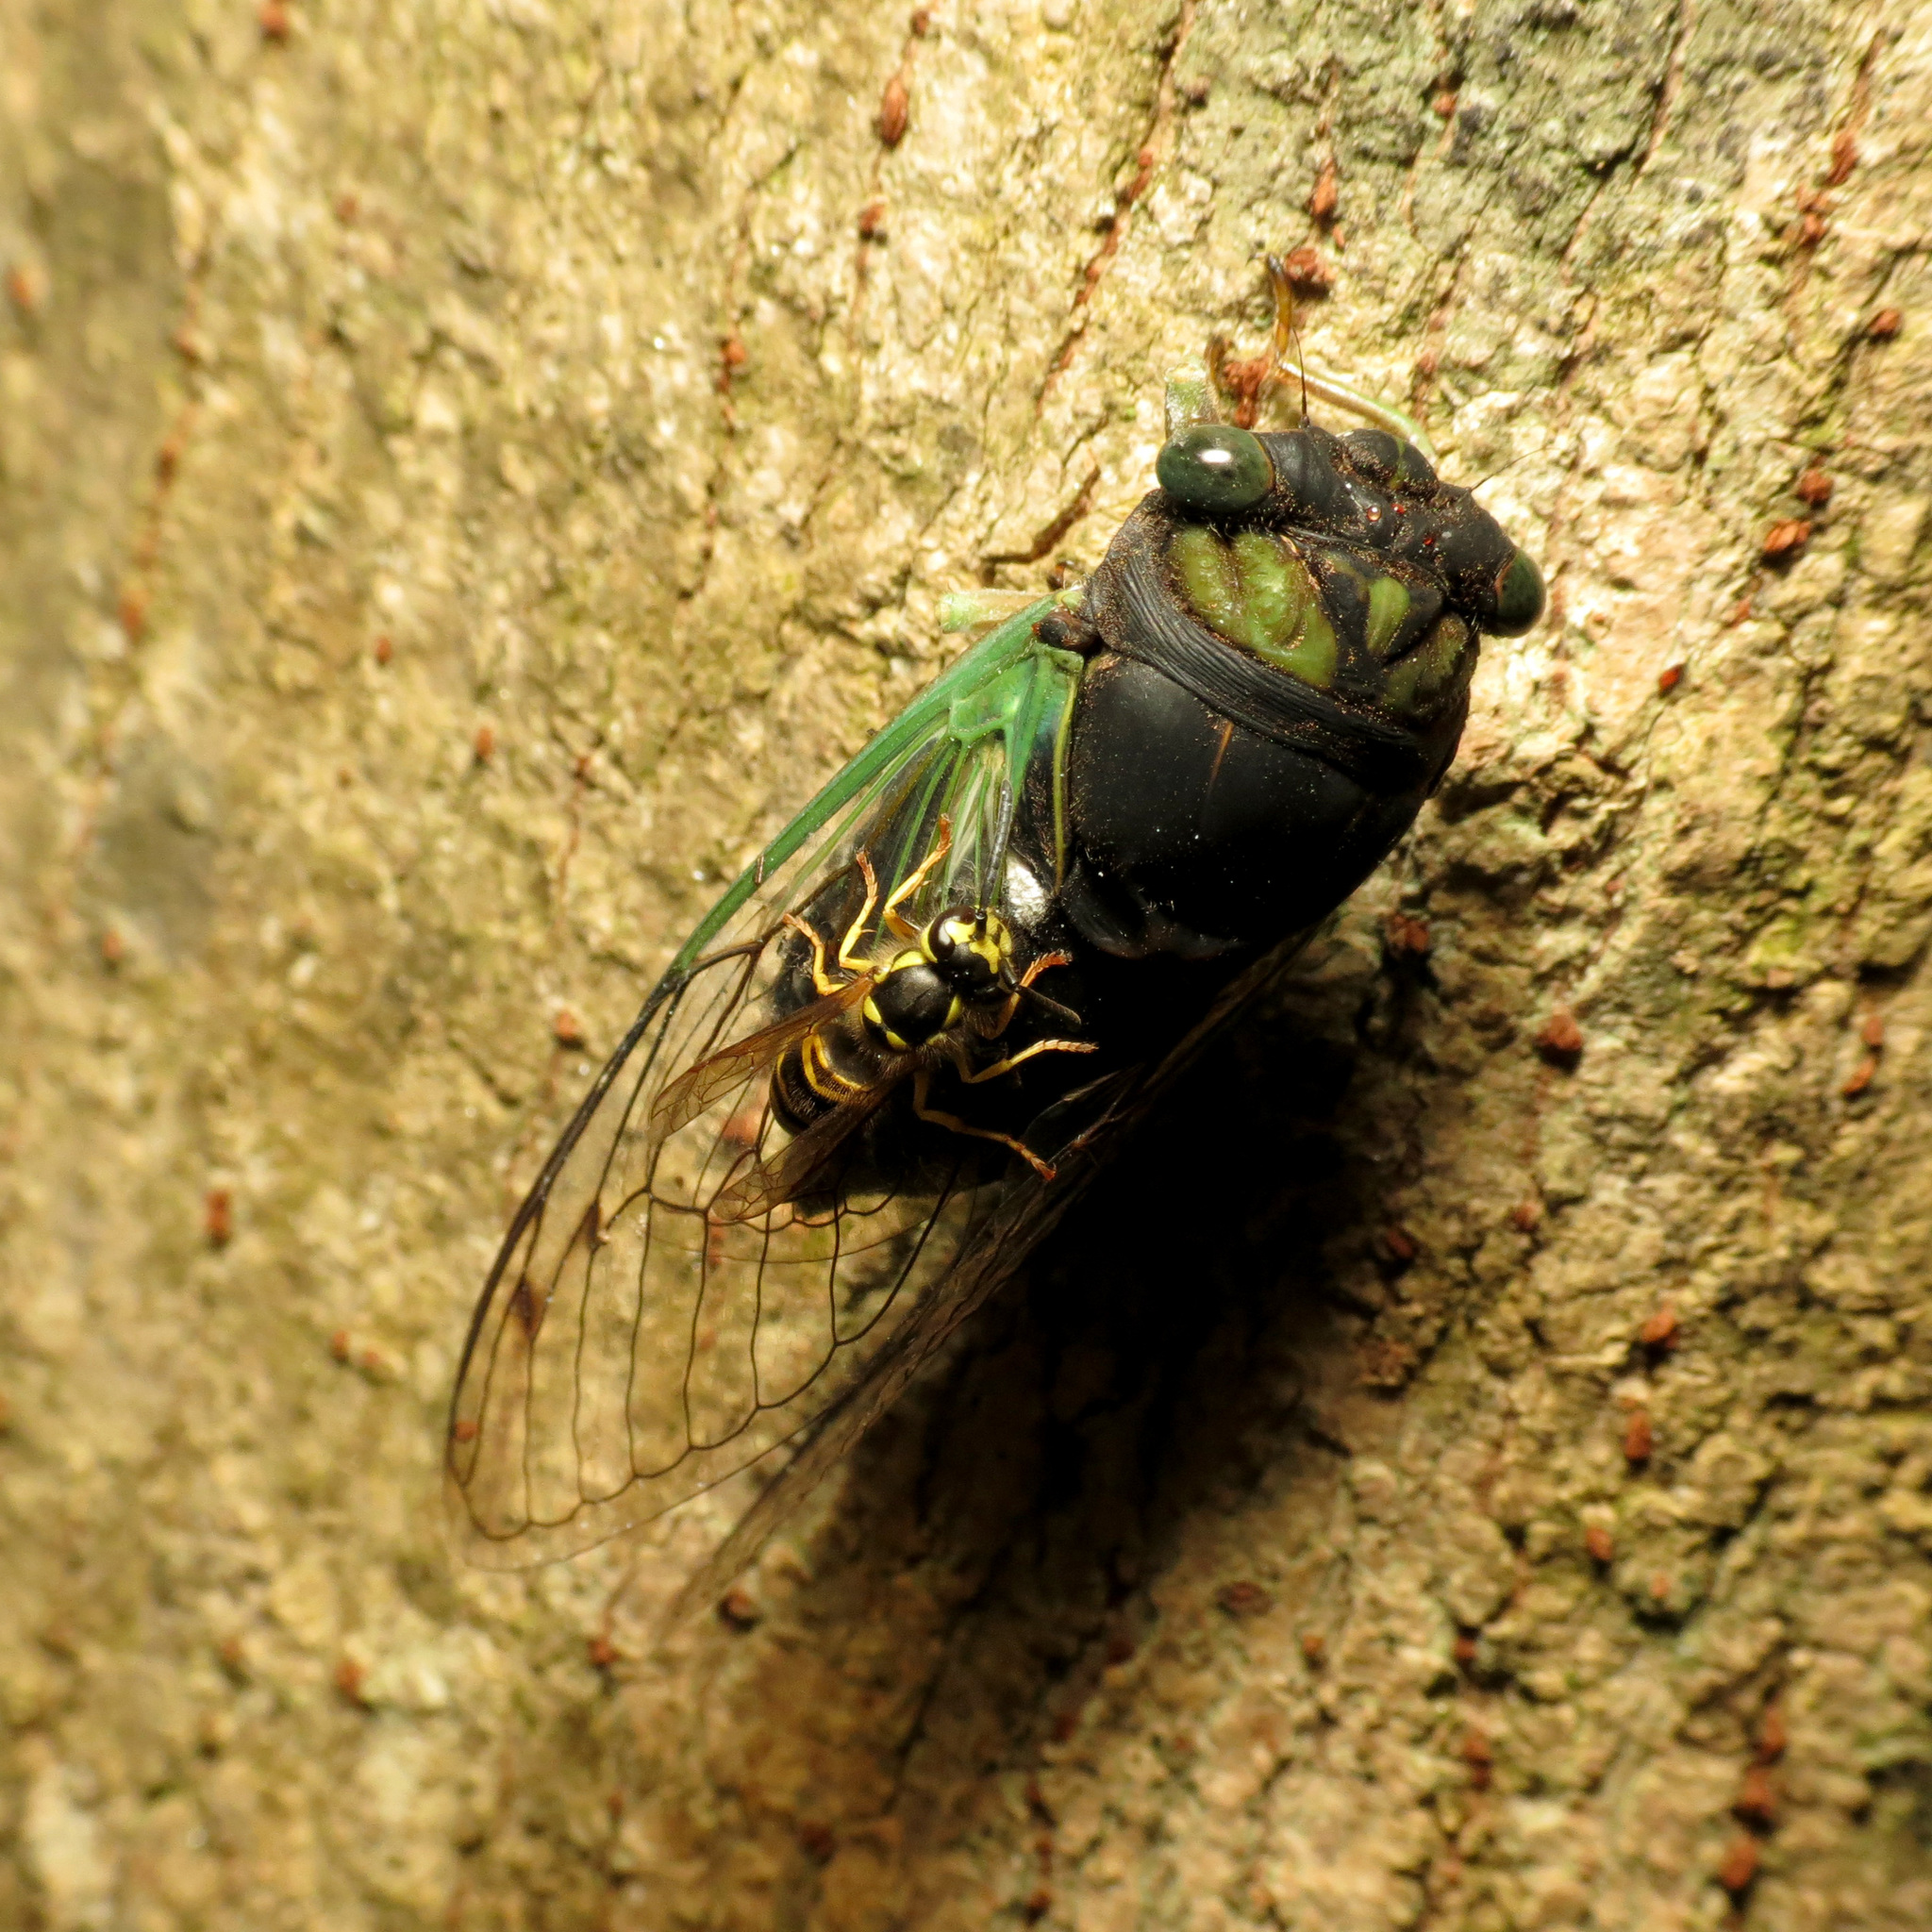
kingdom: Animalia
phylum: Arthropoda
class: Insecta
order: Hemiptera
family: Cicadidae
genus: Neotibicen
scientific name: Neotibicen tibicen
